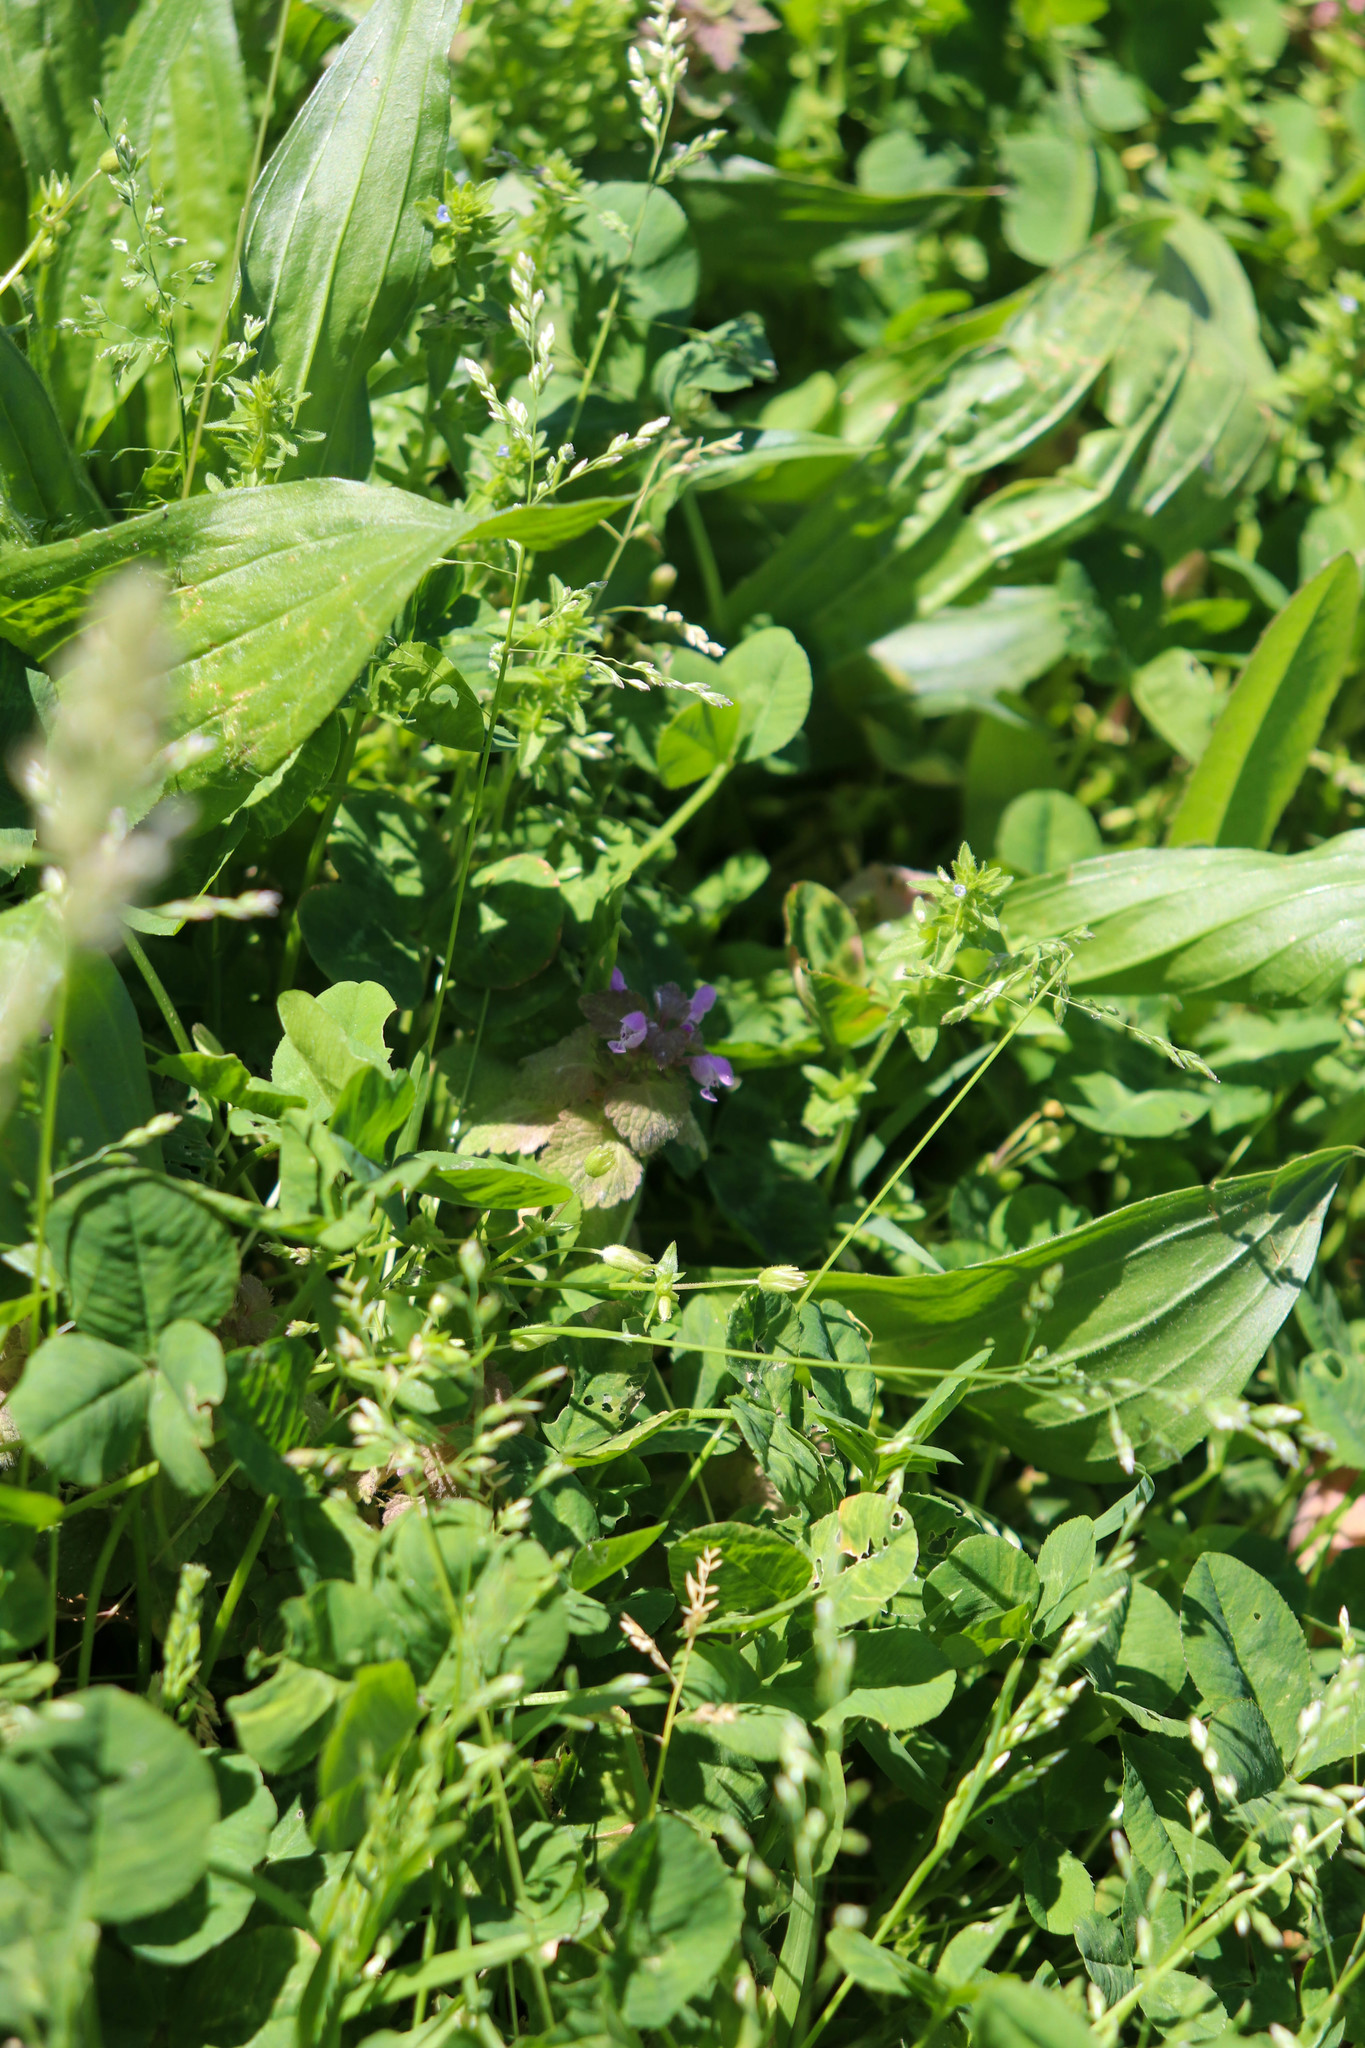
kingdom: Plantae
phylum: Tracheophyta
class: Magnoliopsida
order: Lamiales
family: Lamiaceae
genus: Lamium
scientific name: Lamium purpureum
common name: Red dead-nettle
